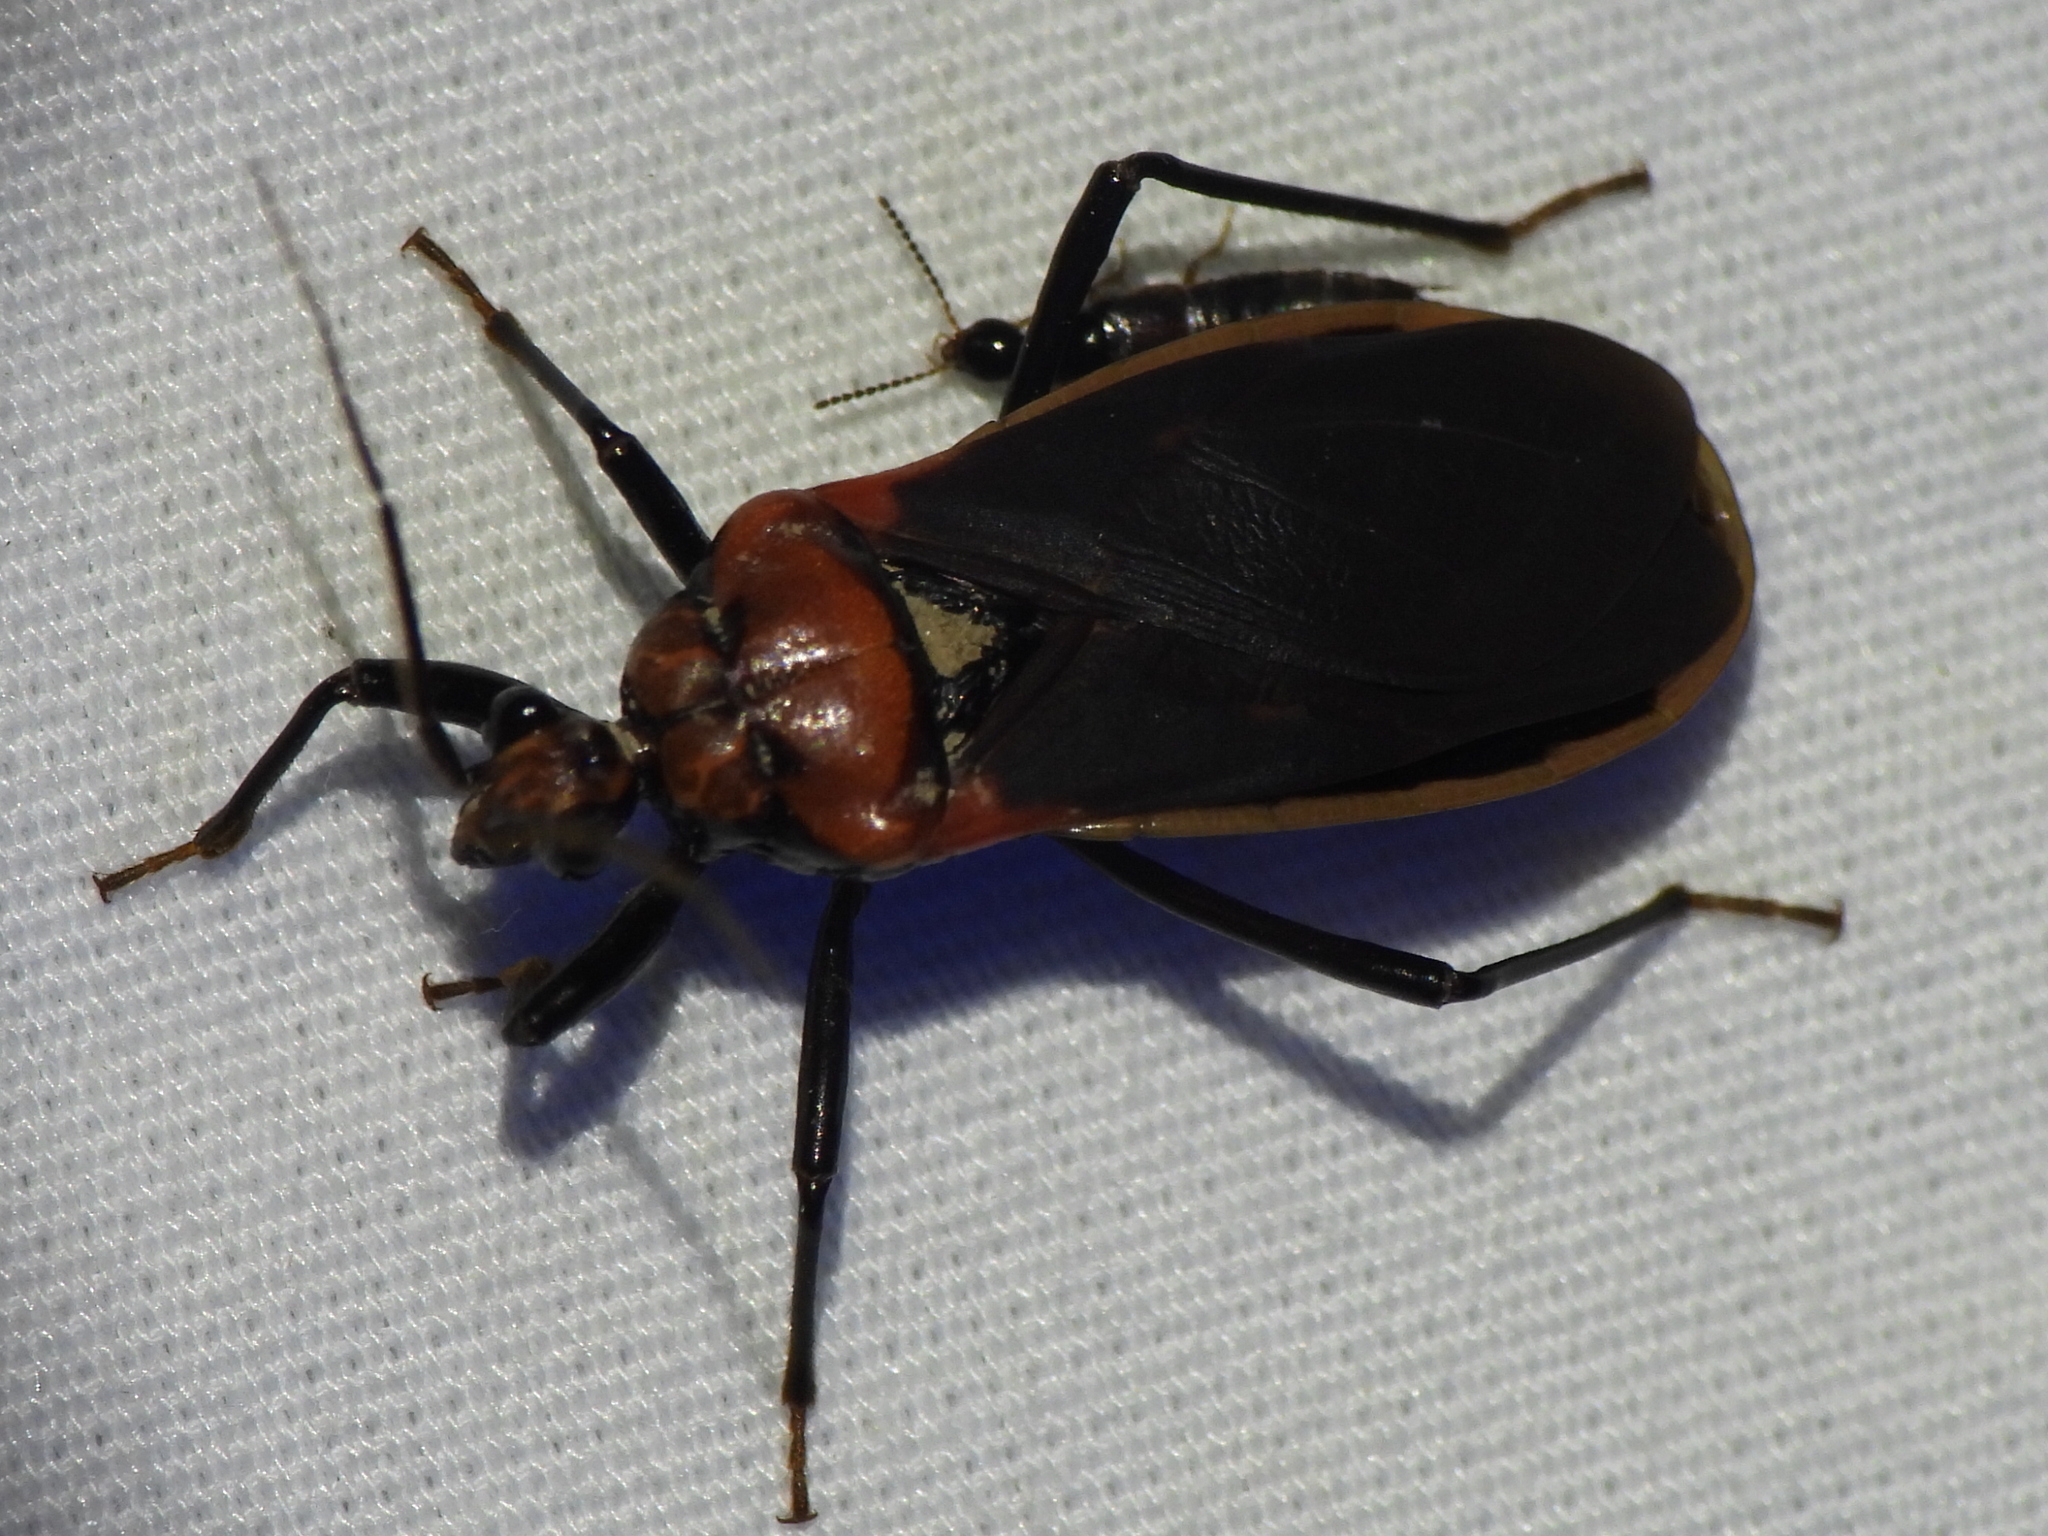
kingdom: Animalia
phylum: Arthropoda
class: Insecta
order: Hemiptera
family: Reduviidae
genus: Rhiginia
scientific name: Rhiginia cinctiventris
